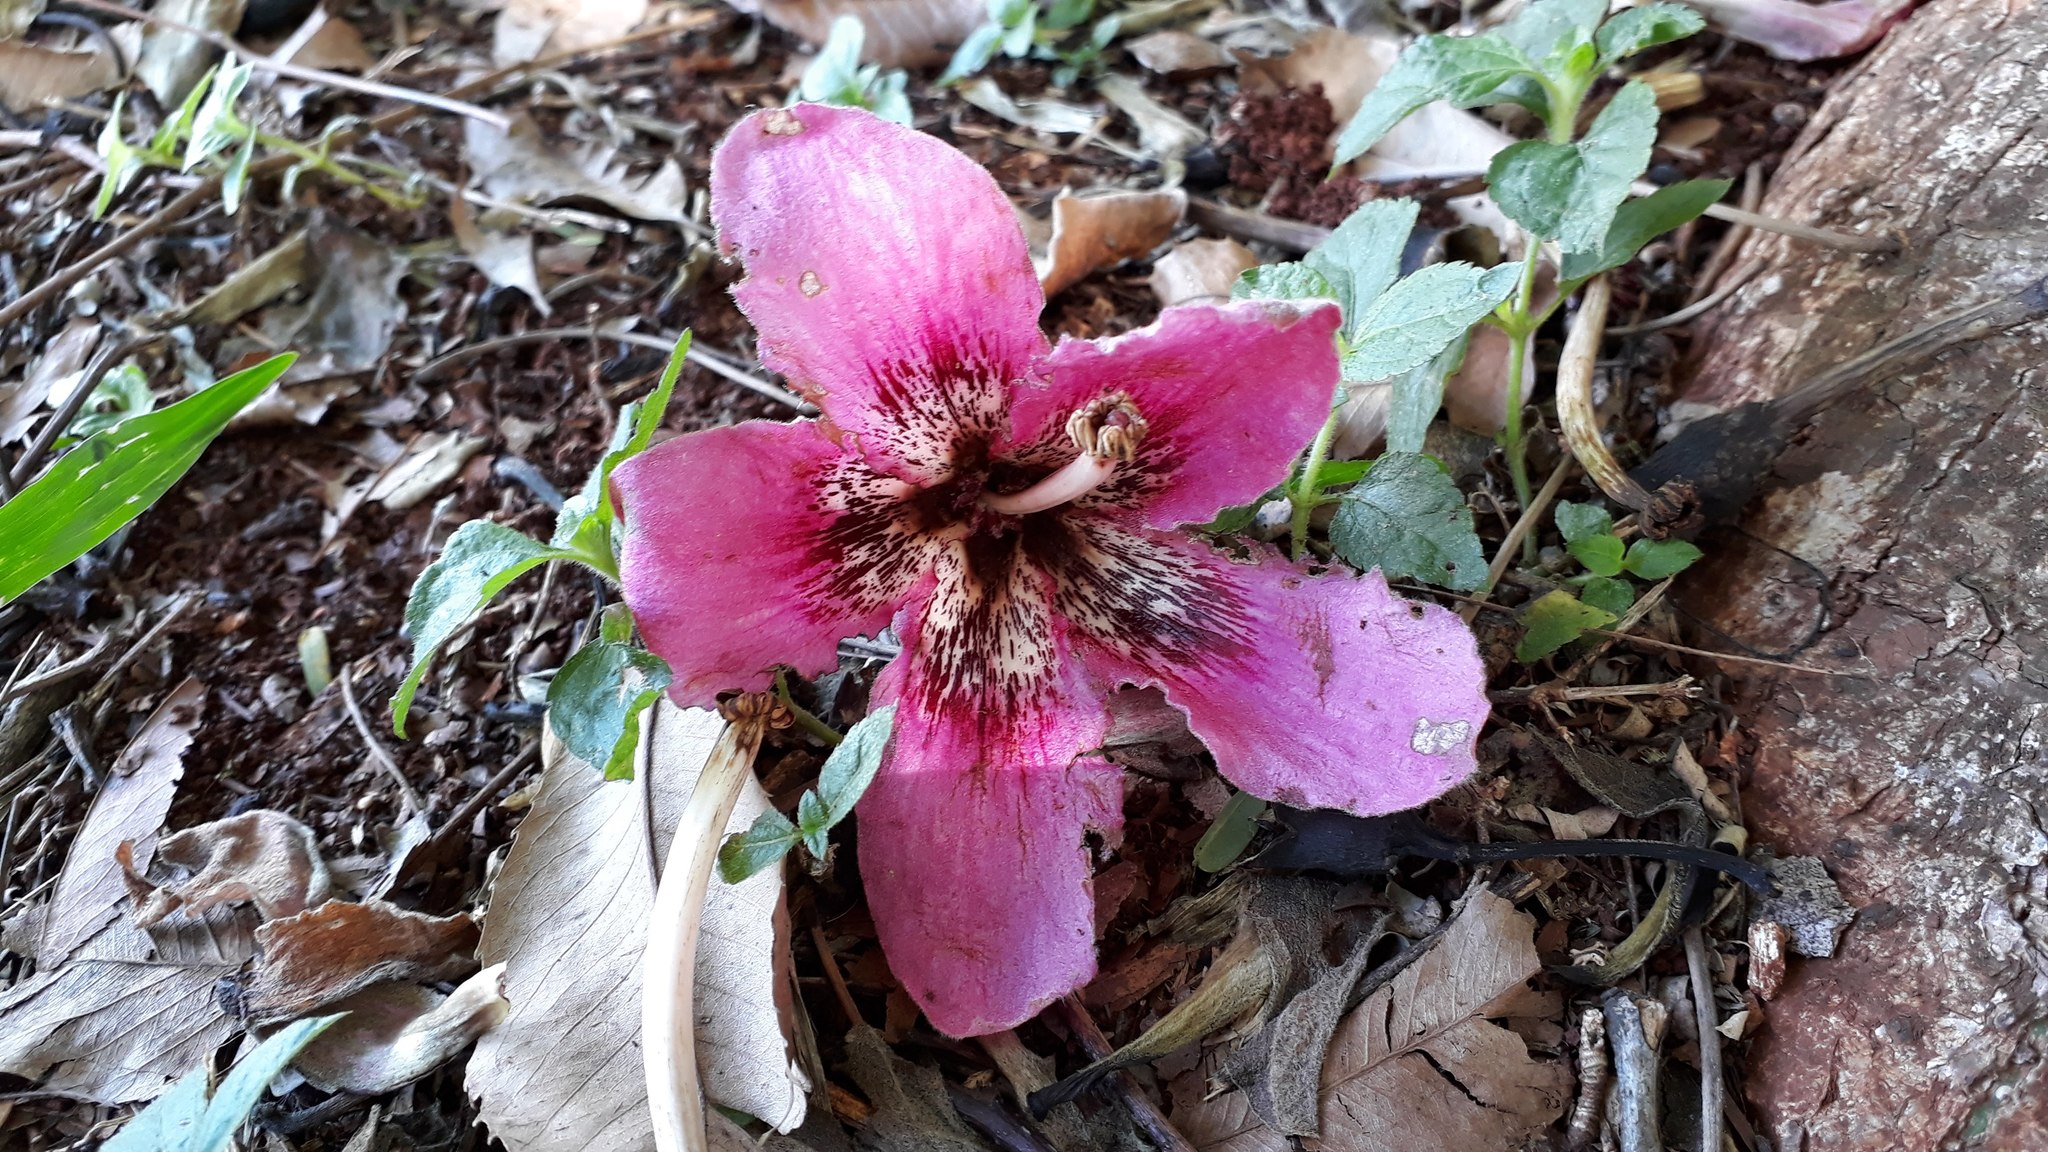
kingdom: Plantae
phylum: Tracheophyta
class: Magnoliopsida
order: Malvales
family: Malvaceae
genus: Ceiba
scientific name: Ceiba speciosa
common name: Silk-floss tree
